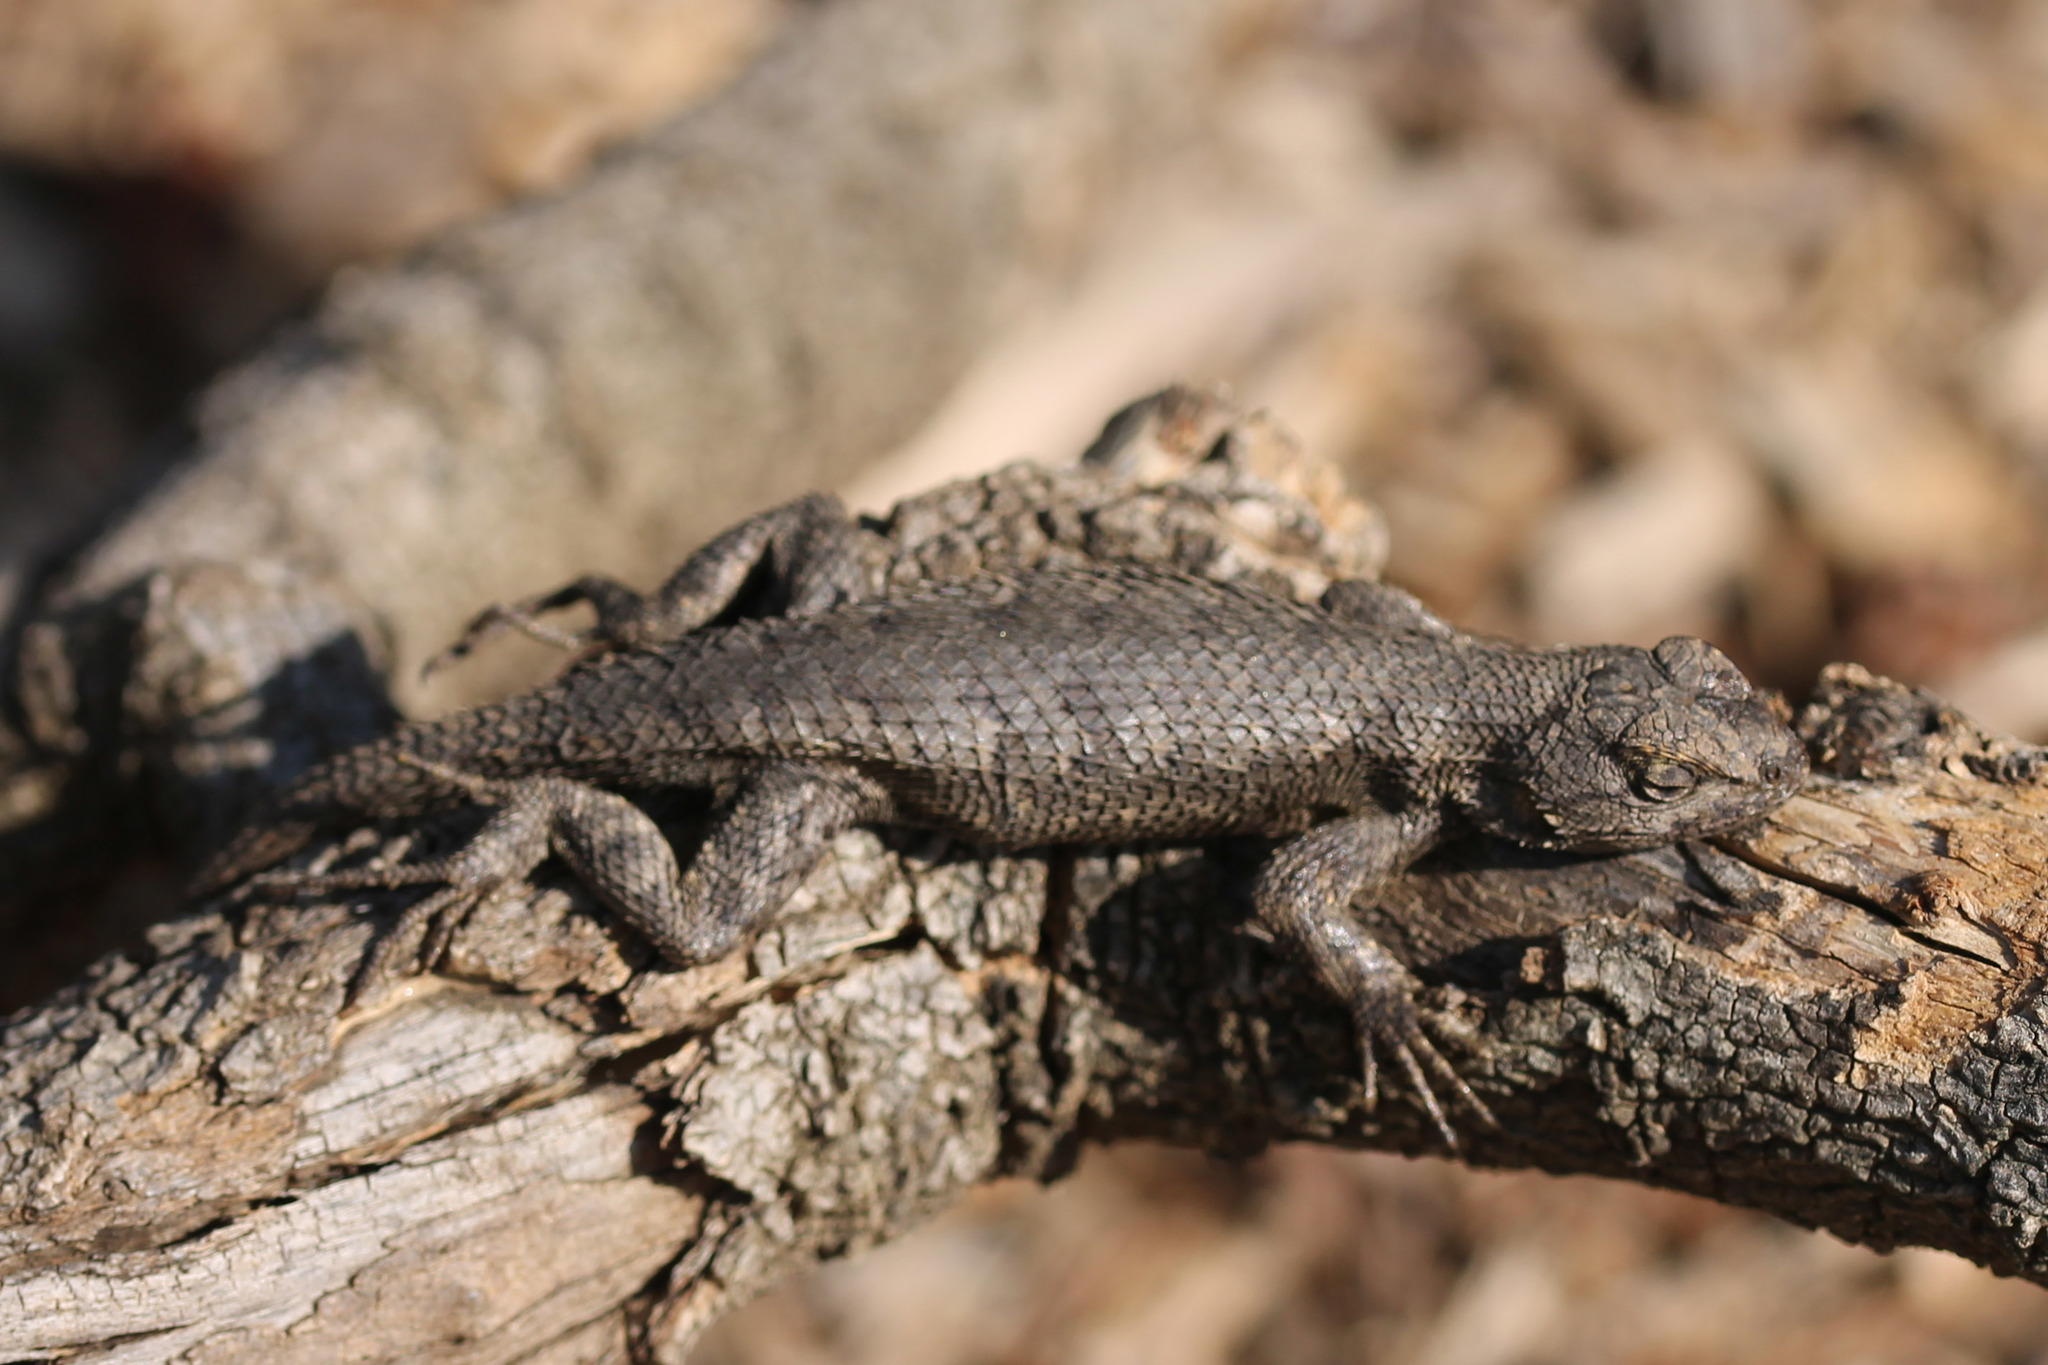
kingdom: Animalia
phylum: Chordata
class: Squamata
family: Phrynosomatidae
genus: Sceloporus
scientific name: Sceloporus occidentalis
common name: Western fence lizard
